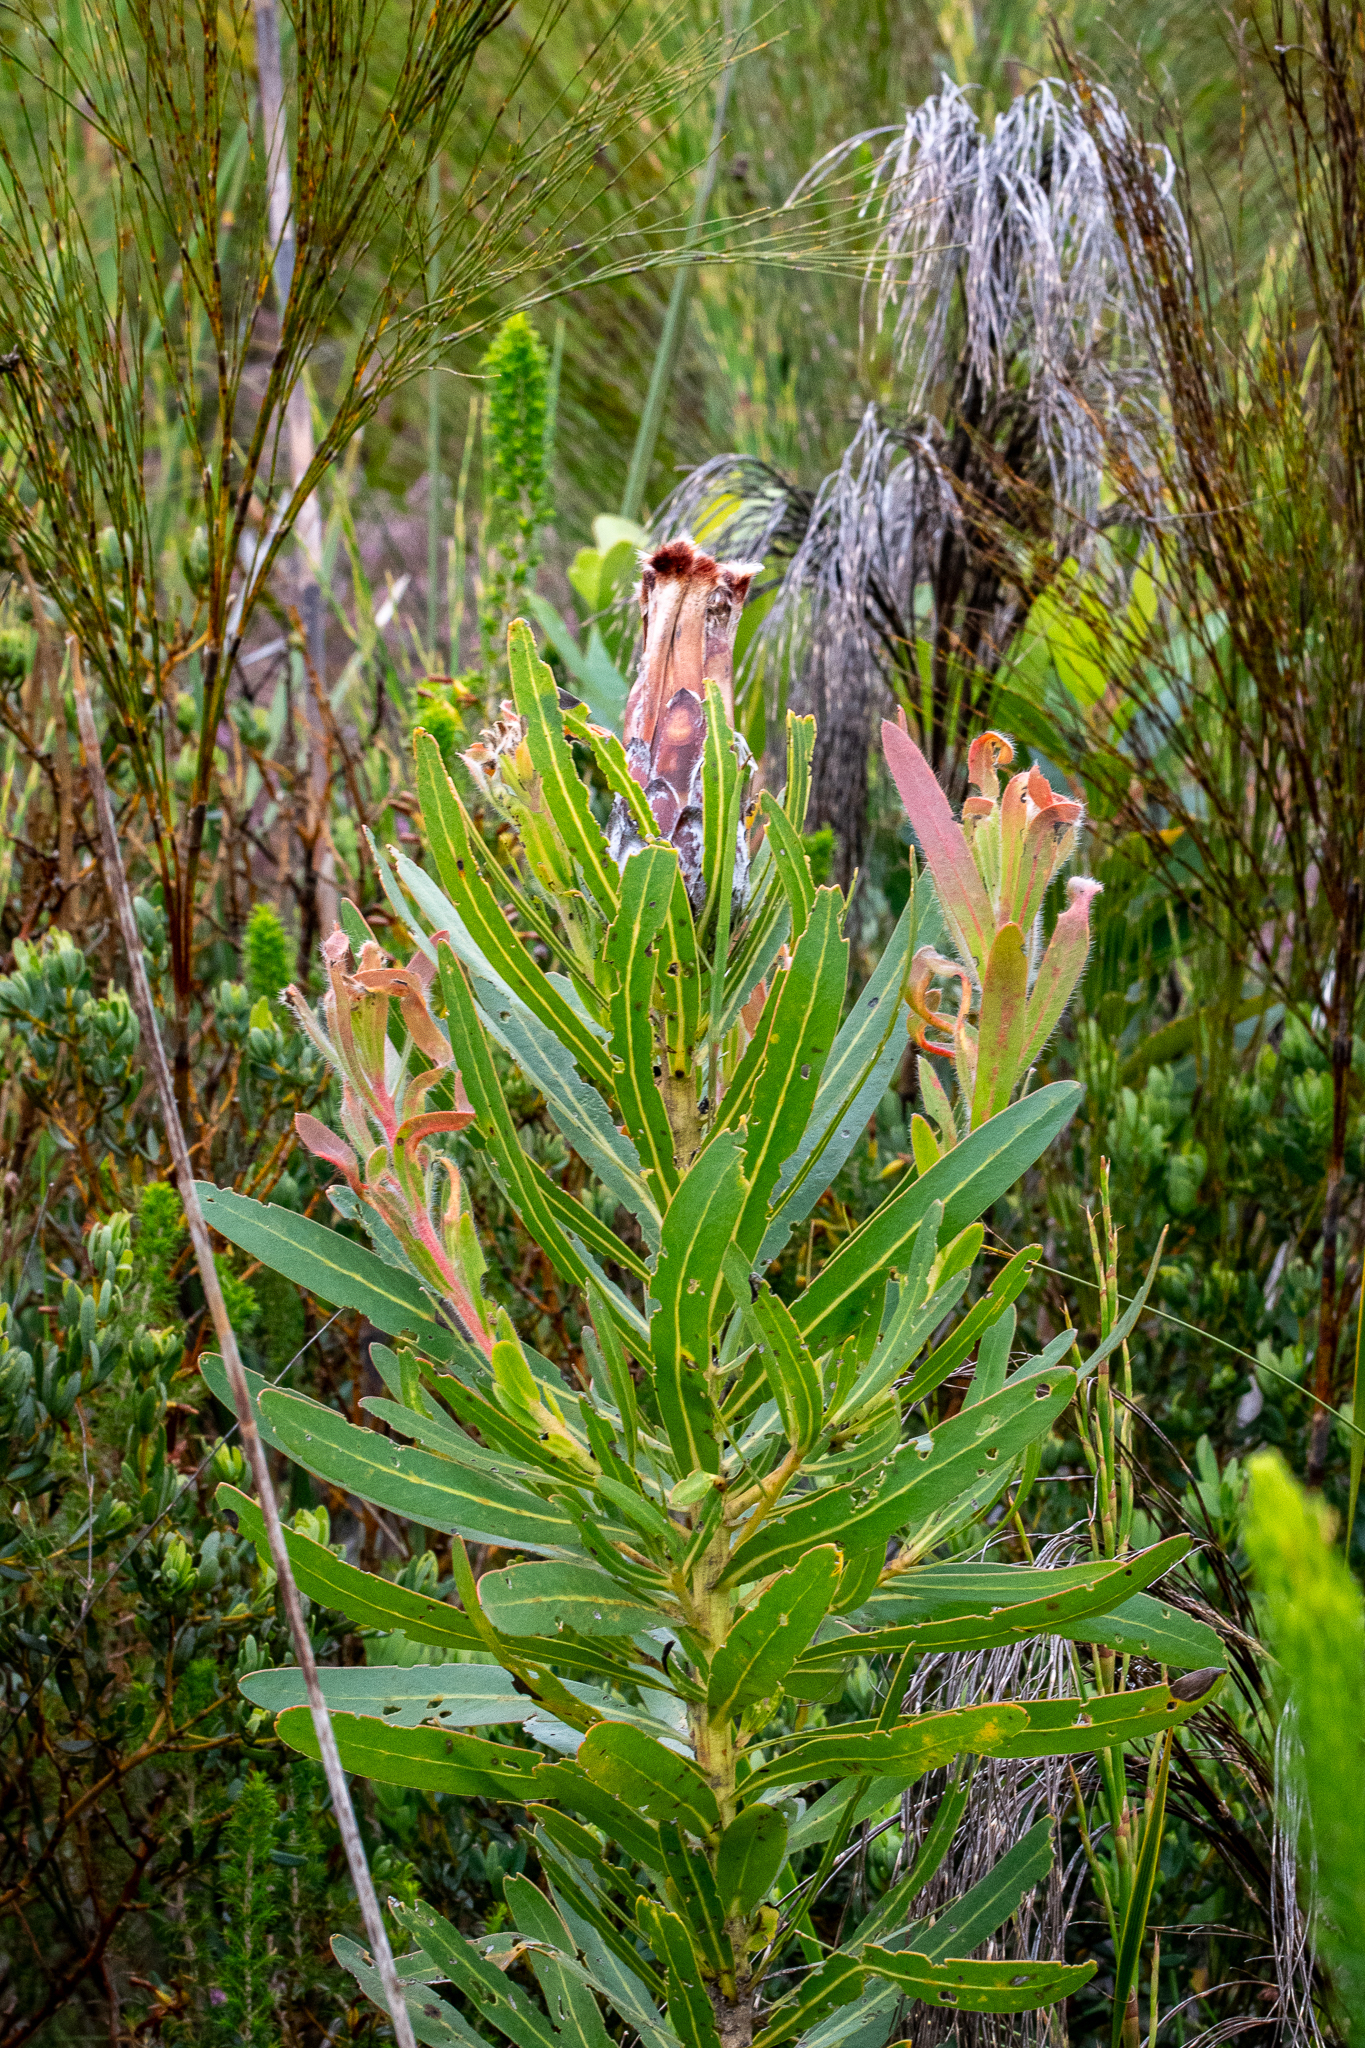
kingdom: Plantae
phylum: Tracheophyta
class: Magnoliopsida
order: Proteales
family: Proteaceae
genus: Protea
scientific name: Protea lepidocarpodendron
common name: Black-bearded protea
